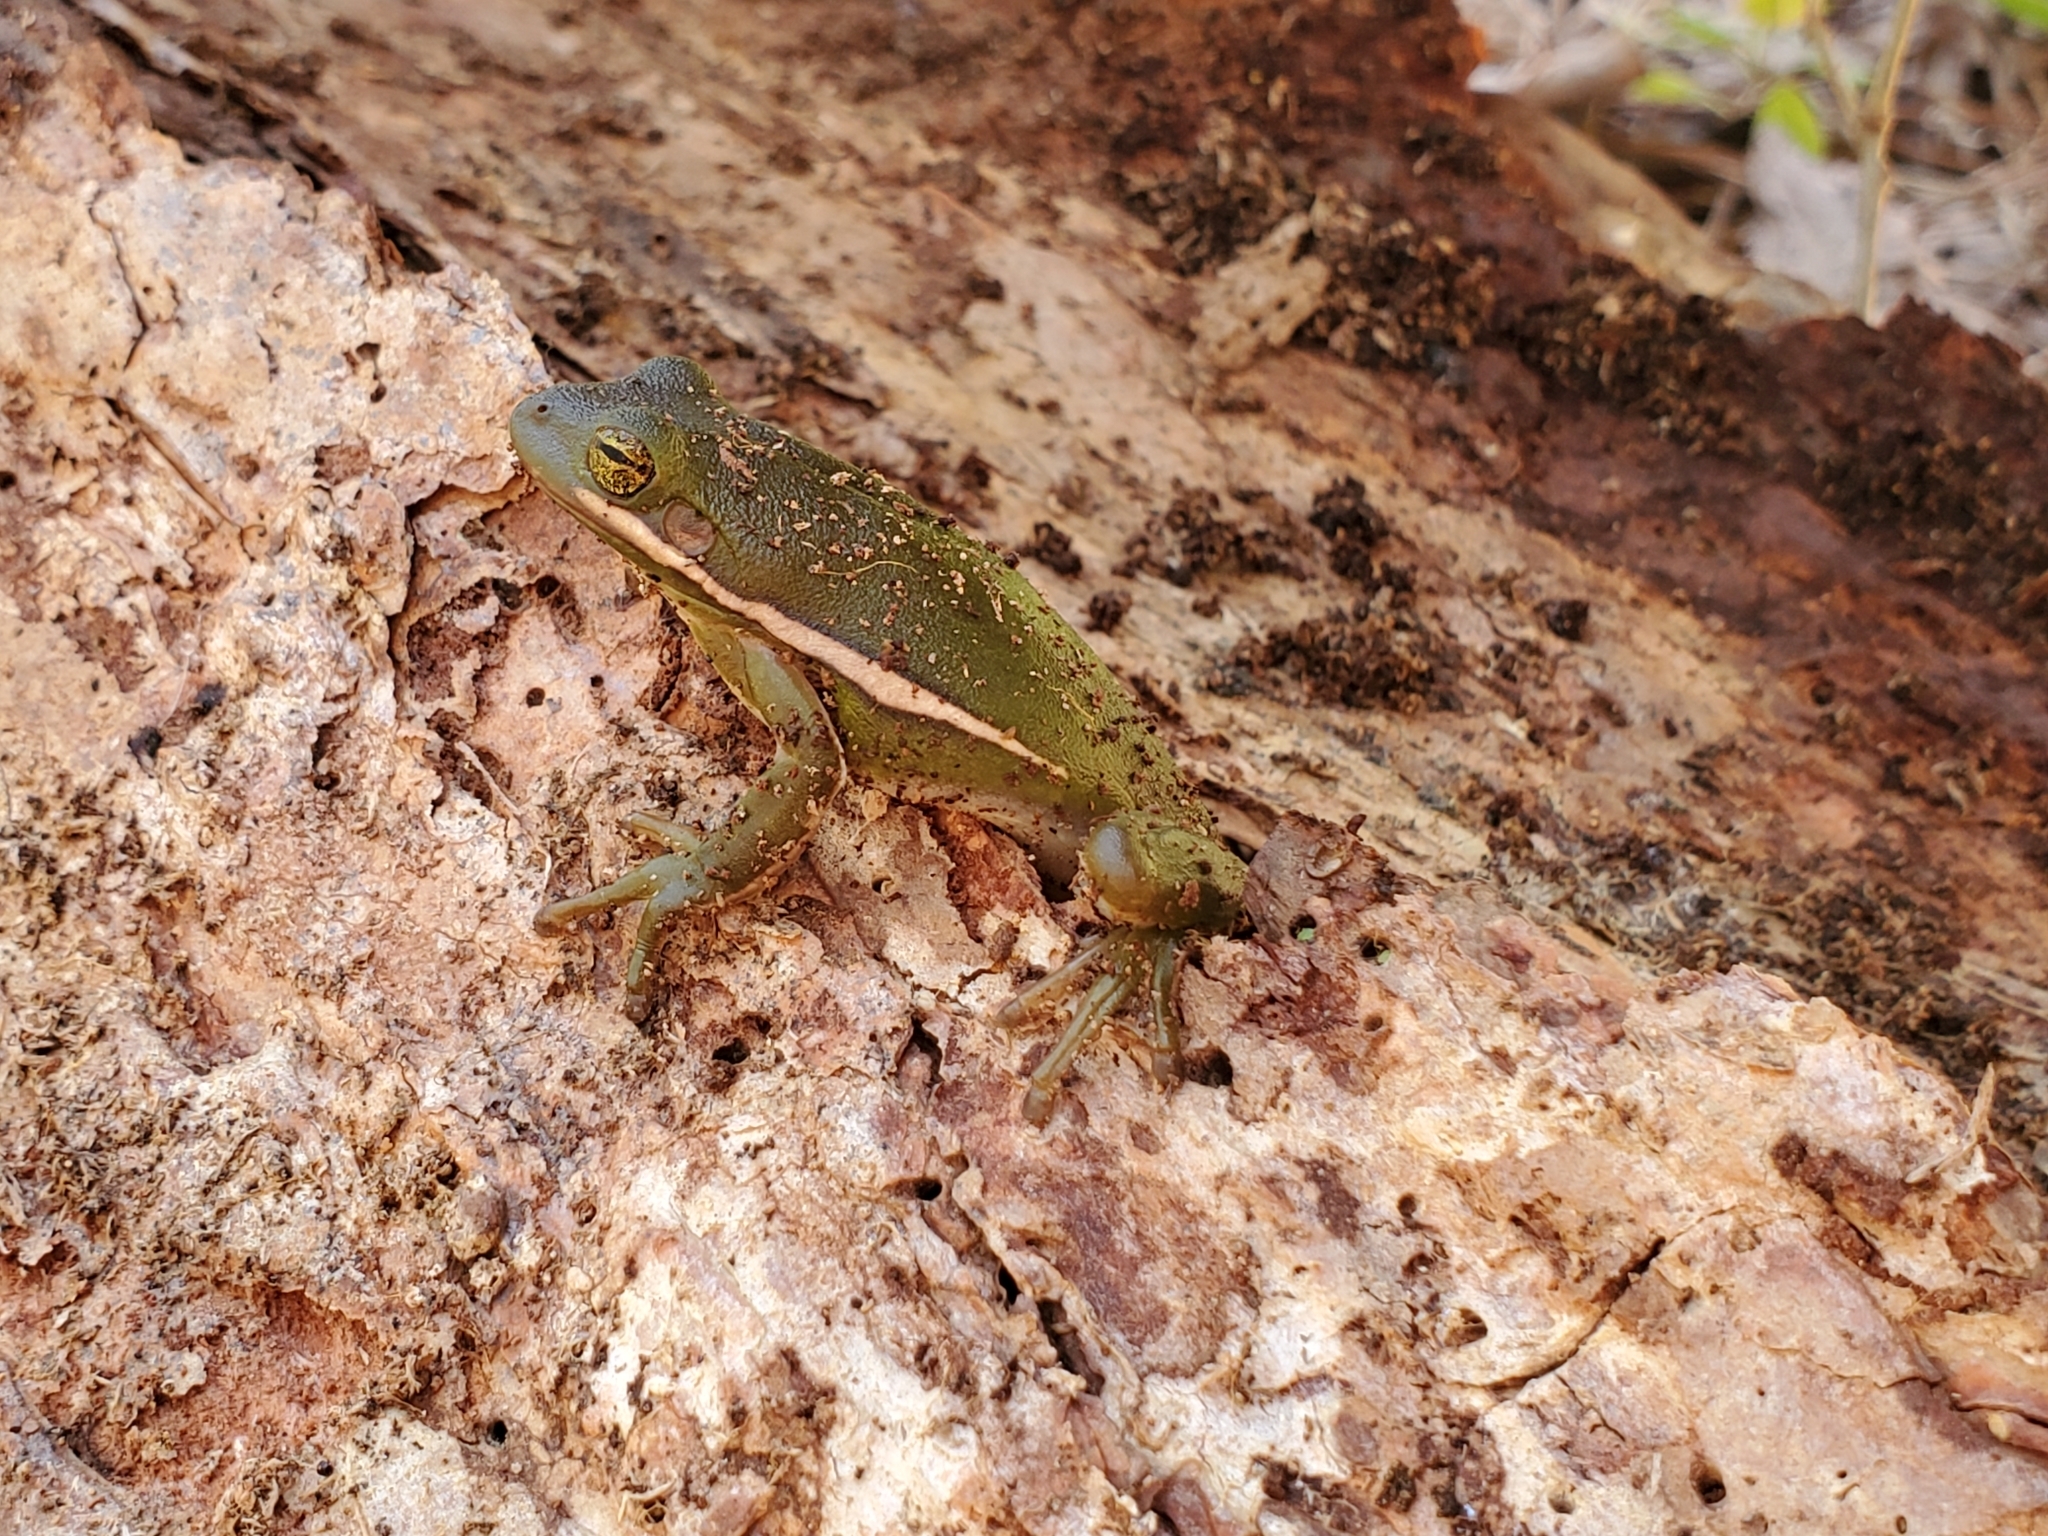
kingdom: Animalia
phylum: Chordata
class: Amphibia
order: Anura
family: Hylidae
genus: Dryophytes
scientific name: Dryophytes cinereus
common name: Green treefrog
